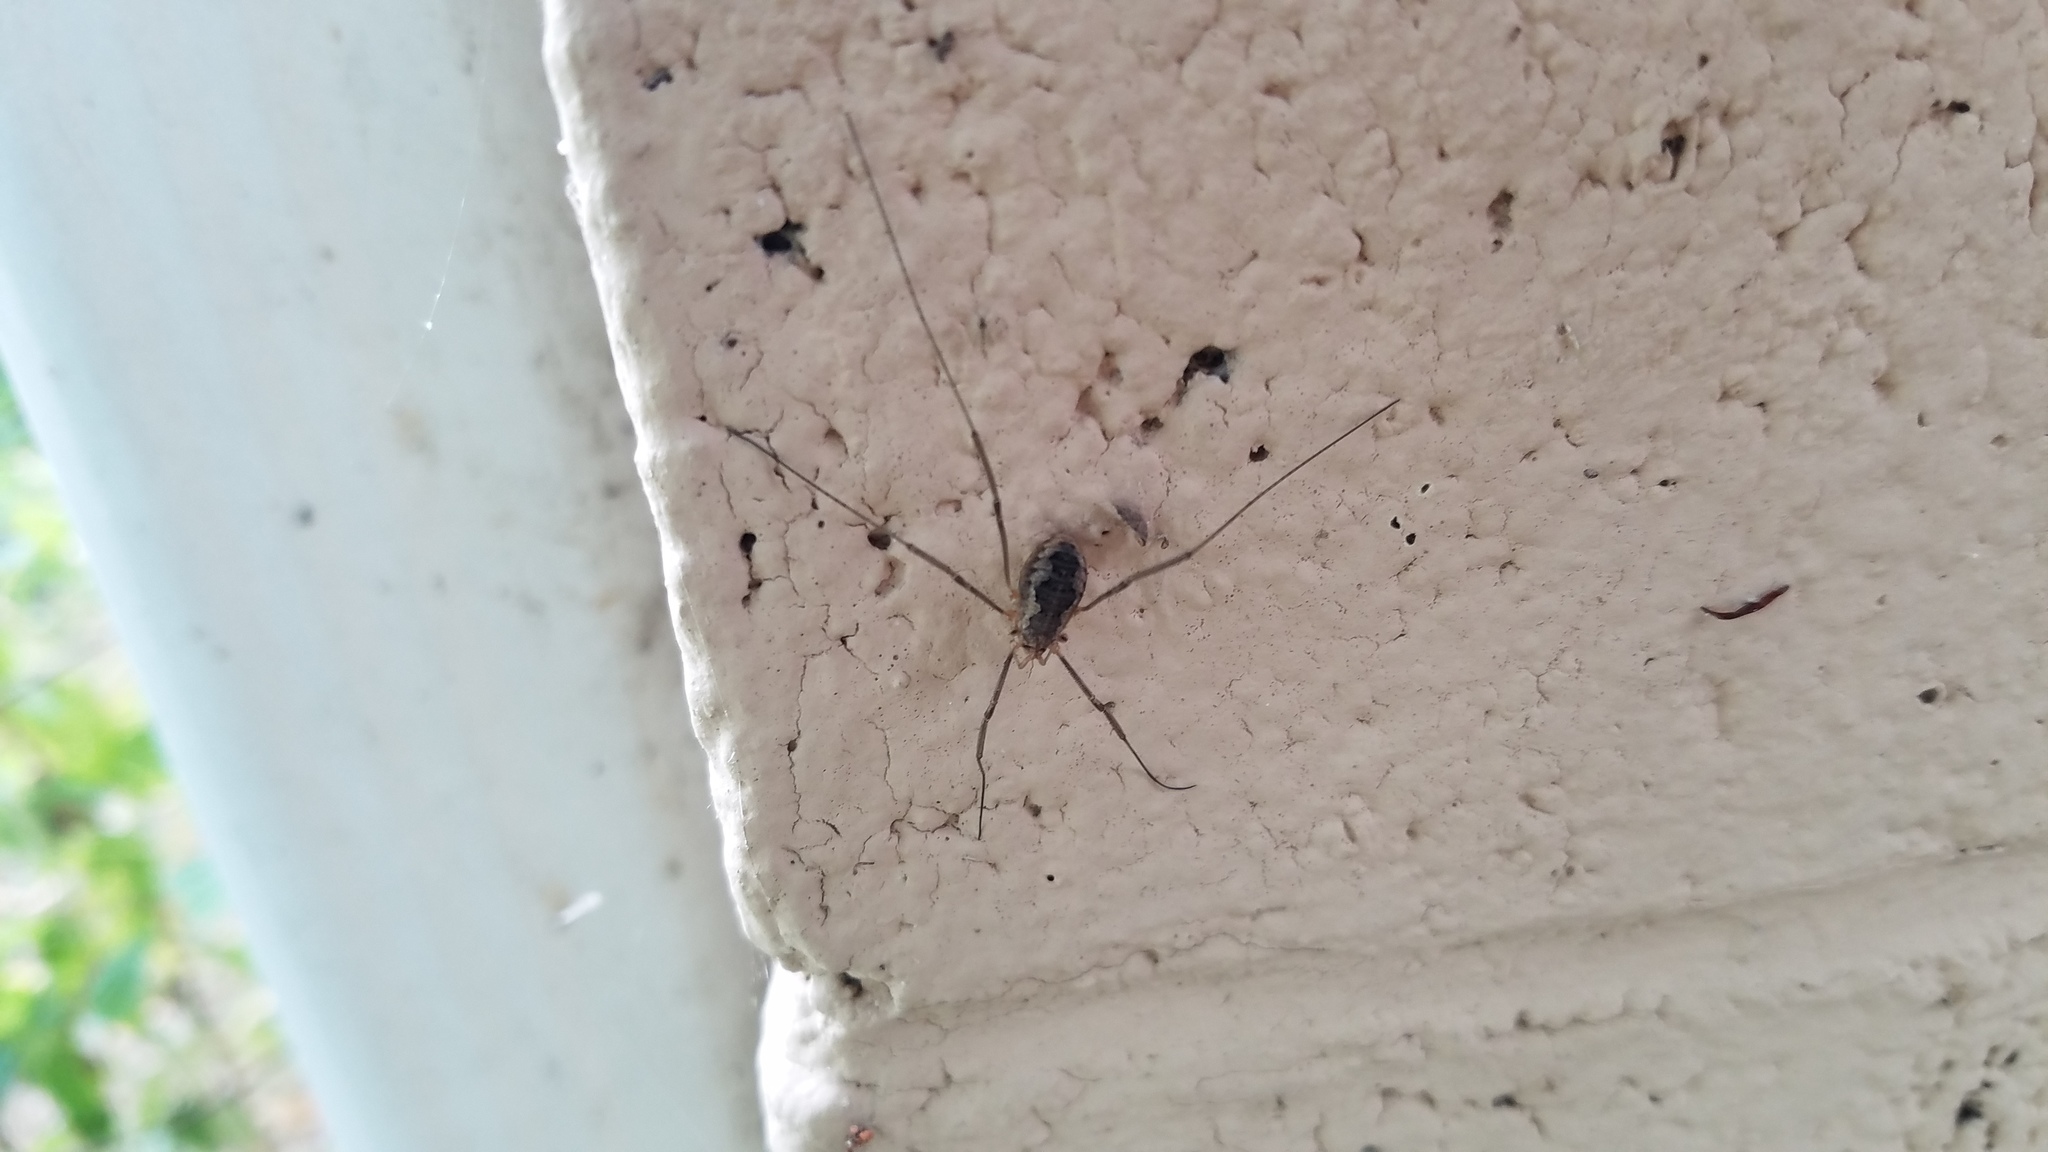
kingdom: Animalia
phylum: Arthropoda
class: Arachnida
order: Opiliones
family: Phalangiidae
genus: Phalangium
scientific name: Phalangium opilio
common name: Daddy longleg
